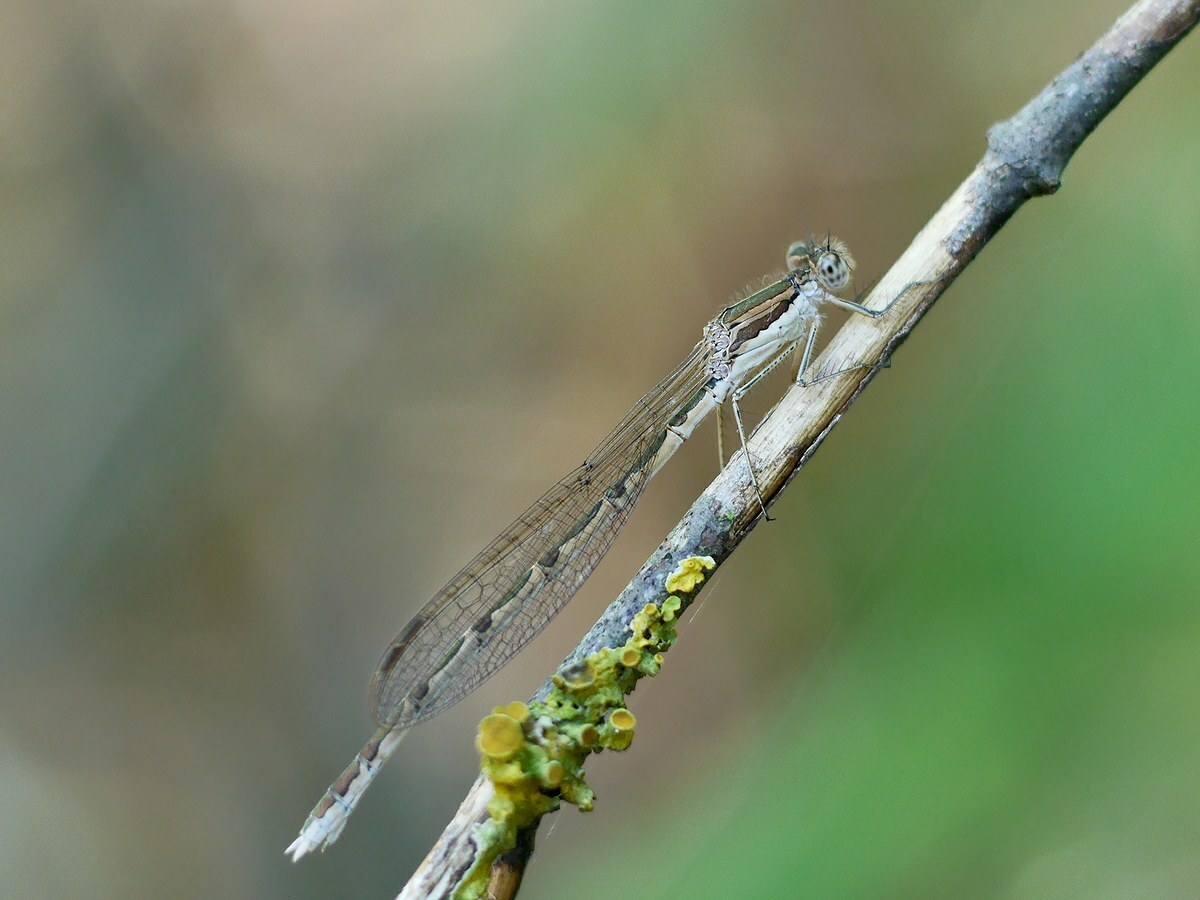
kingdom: Animalia
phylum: Arthropoda
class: Insecta
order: Odonata
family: Lestidae
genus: Sympecma
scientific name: Sympecma fusca
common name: Common winter damsel
